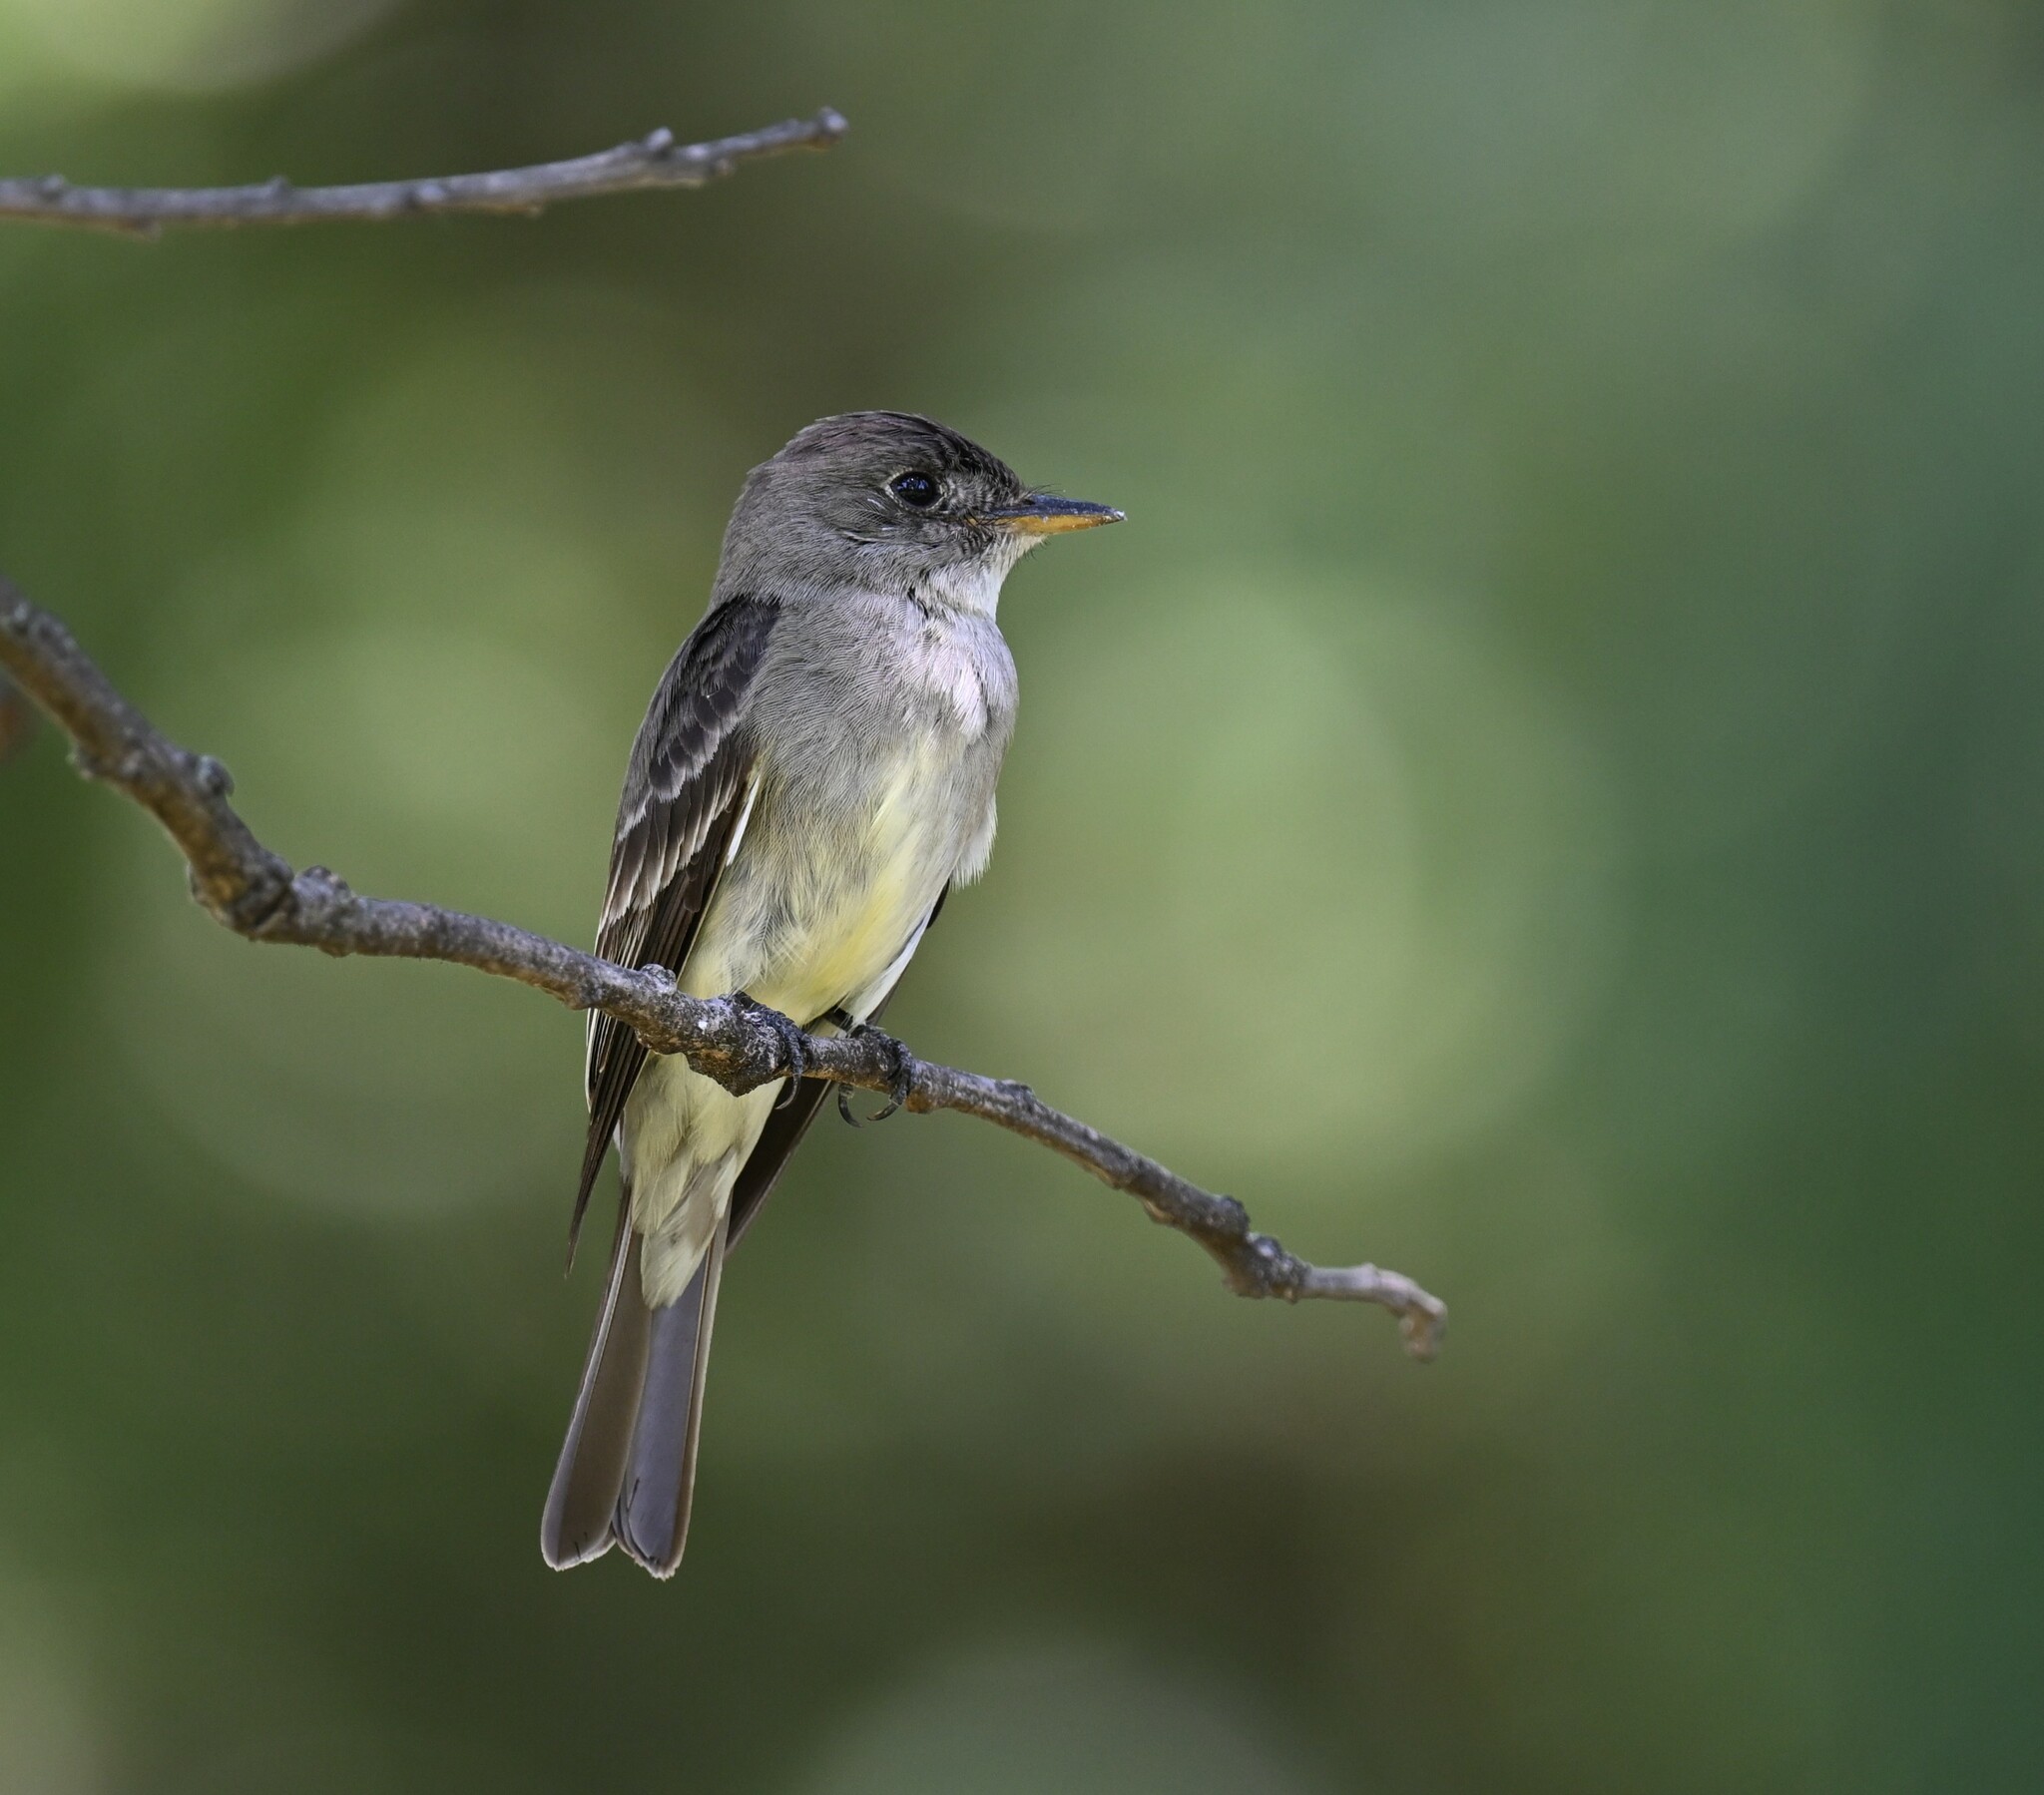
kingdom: Animalia
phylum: Chordata
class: Aves
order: Passeriformes
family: Tyrannidae
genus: Contopus
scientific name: Contopus virens
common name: Eastern wood-pewee
